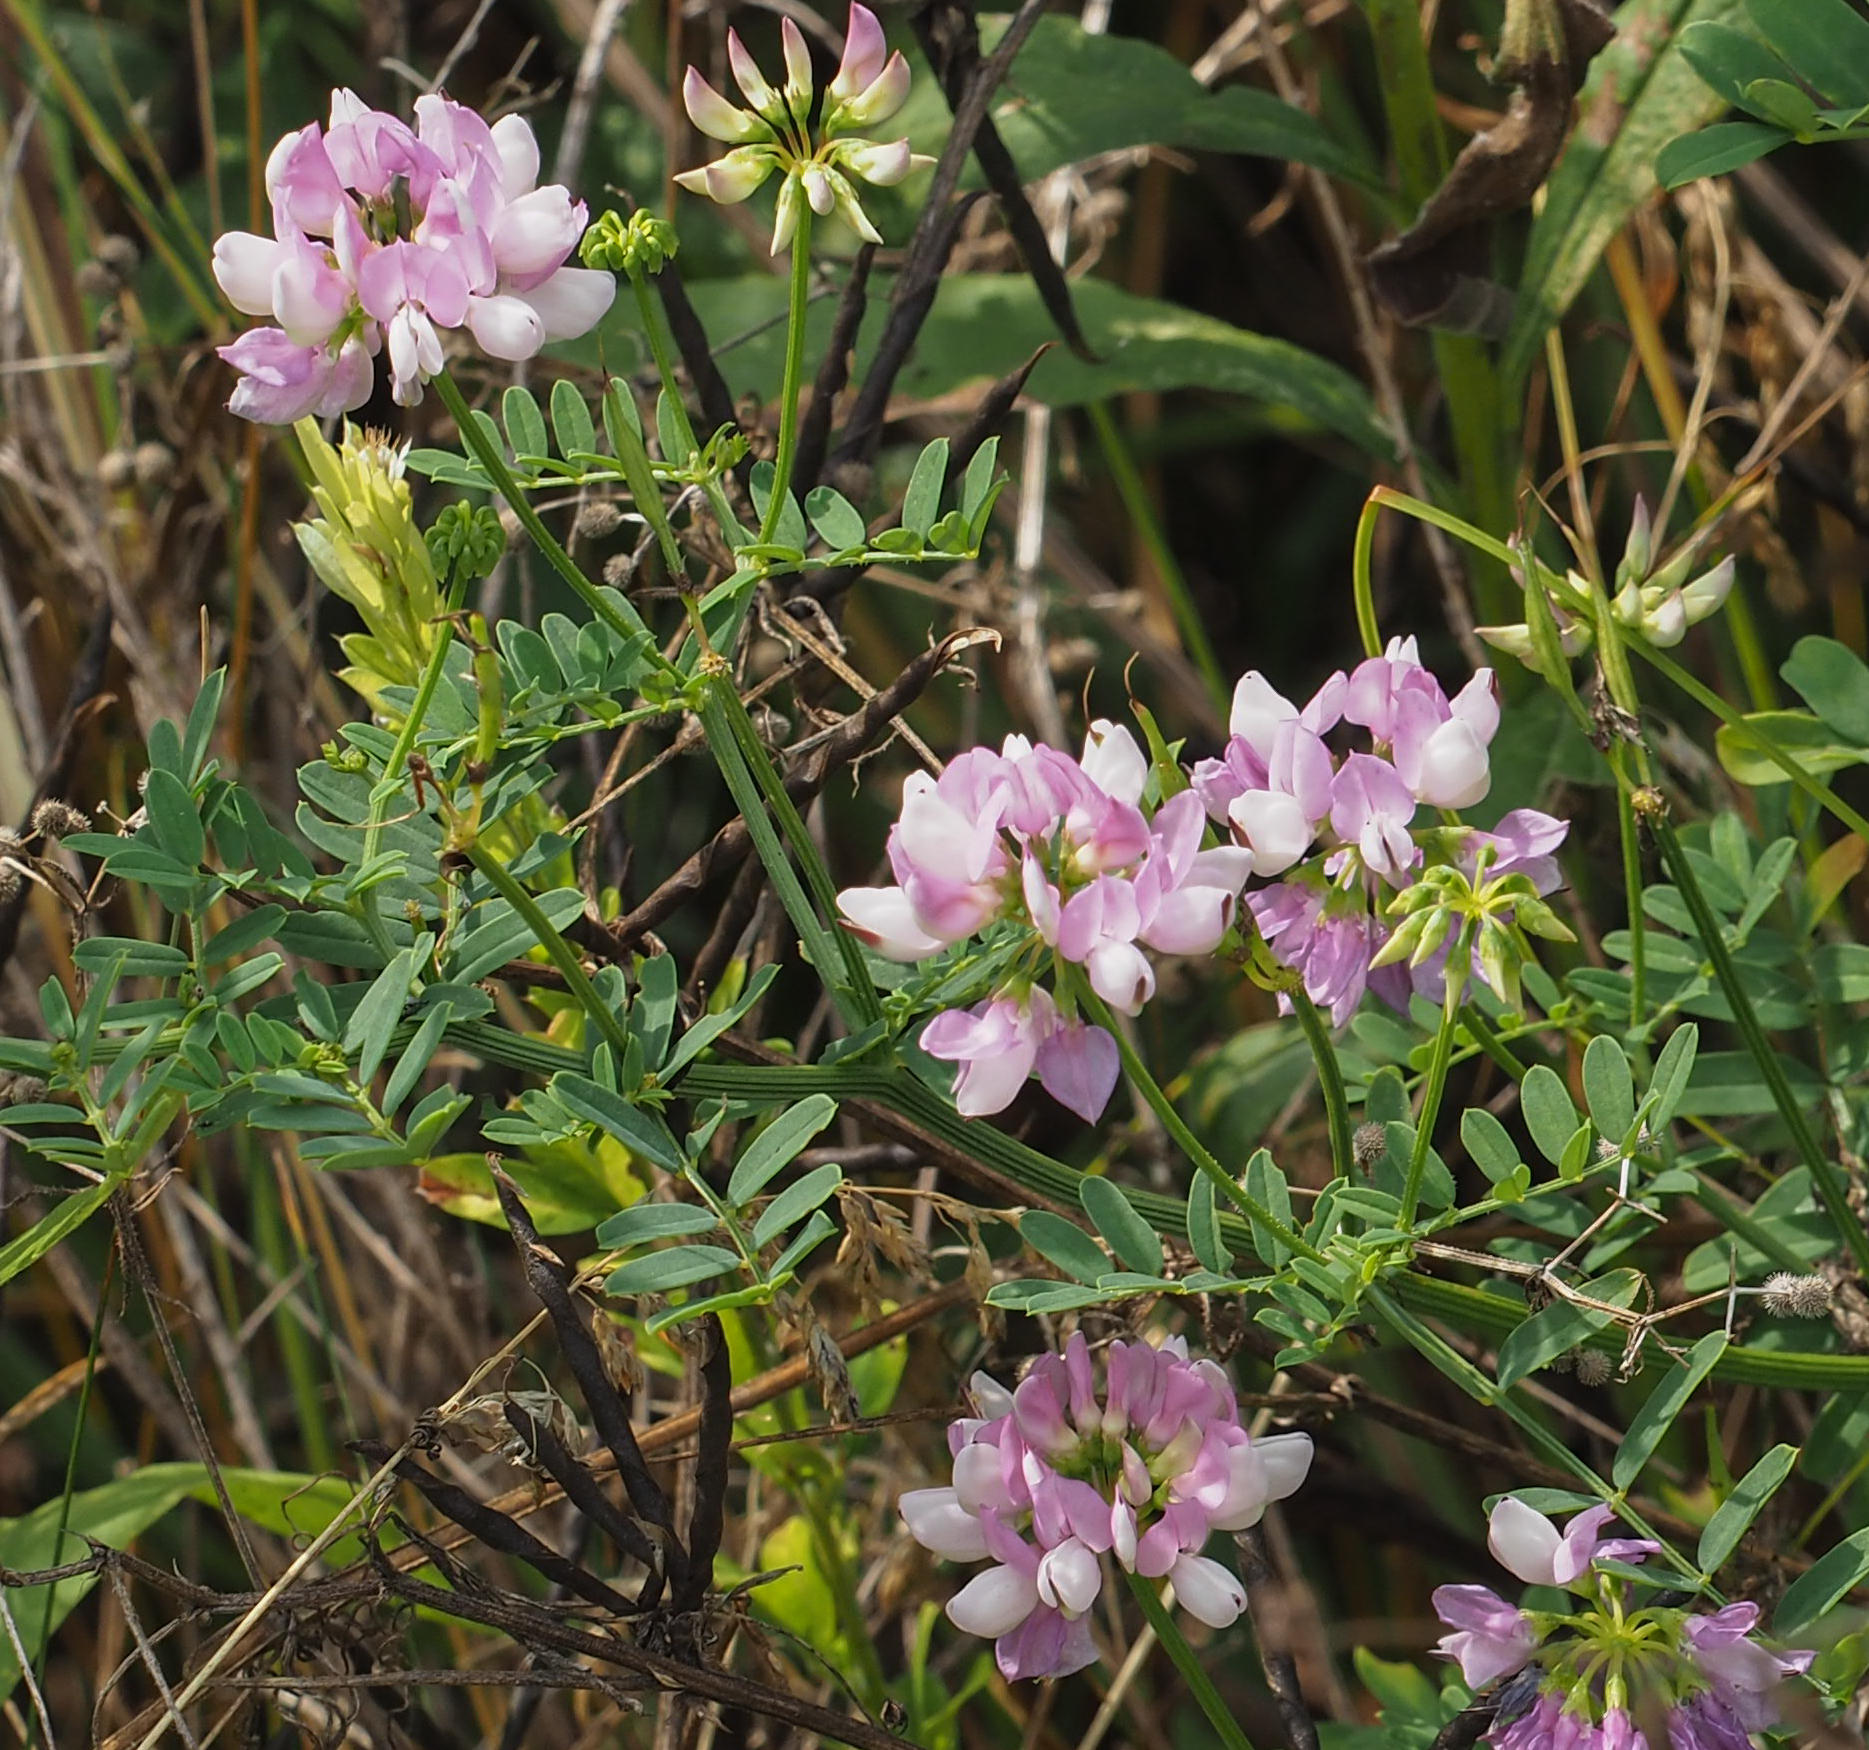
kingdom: Plantae
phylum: Tracheophyta
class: Magnoliopsida
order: Fabales
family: Fabaceae
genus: Coronilla
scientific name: Coronilla varia
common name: Crownvetch
